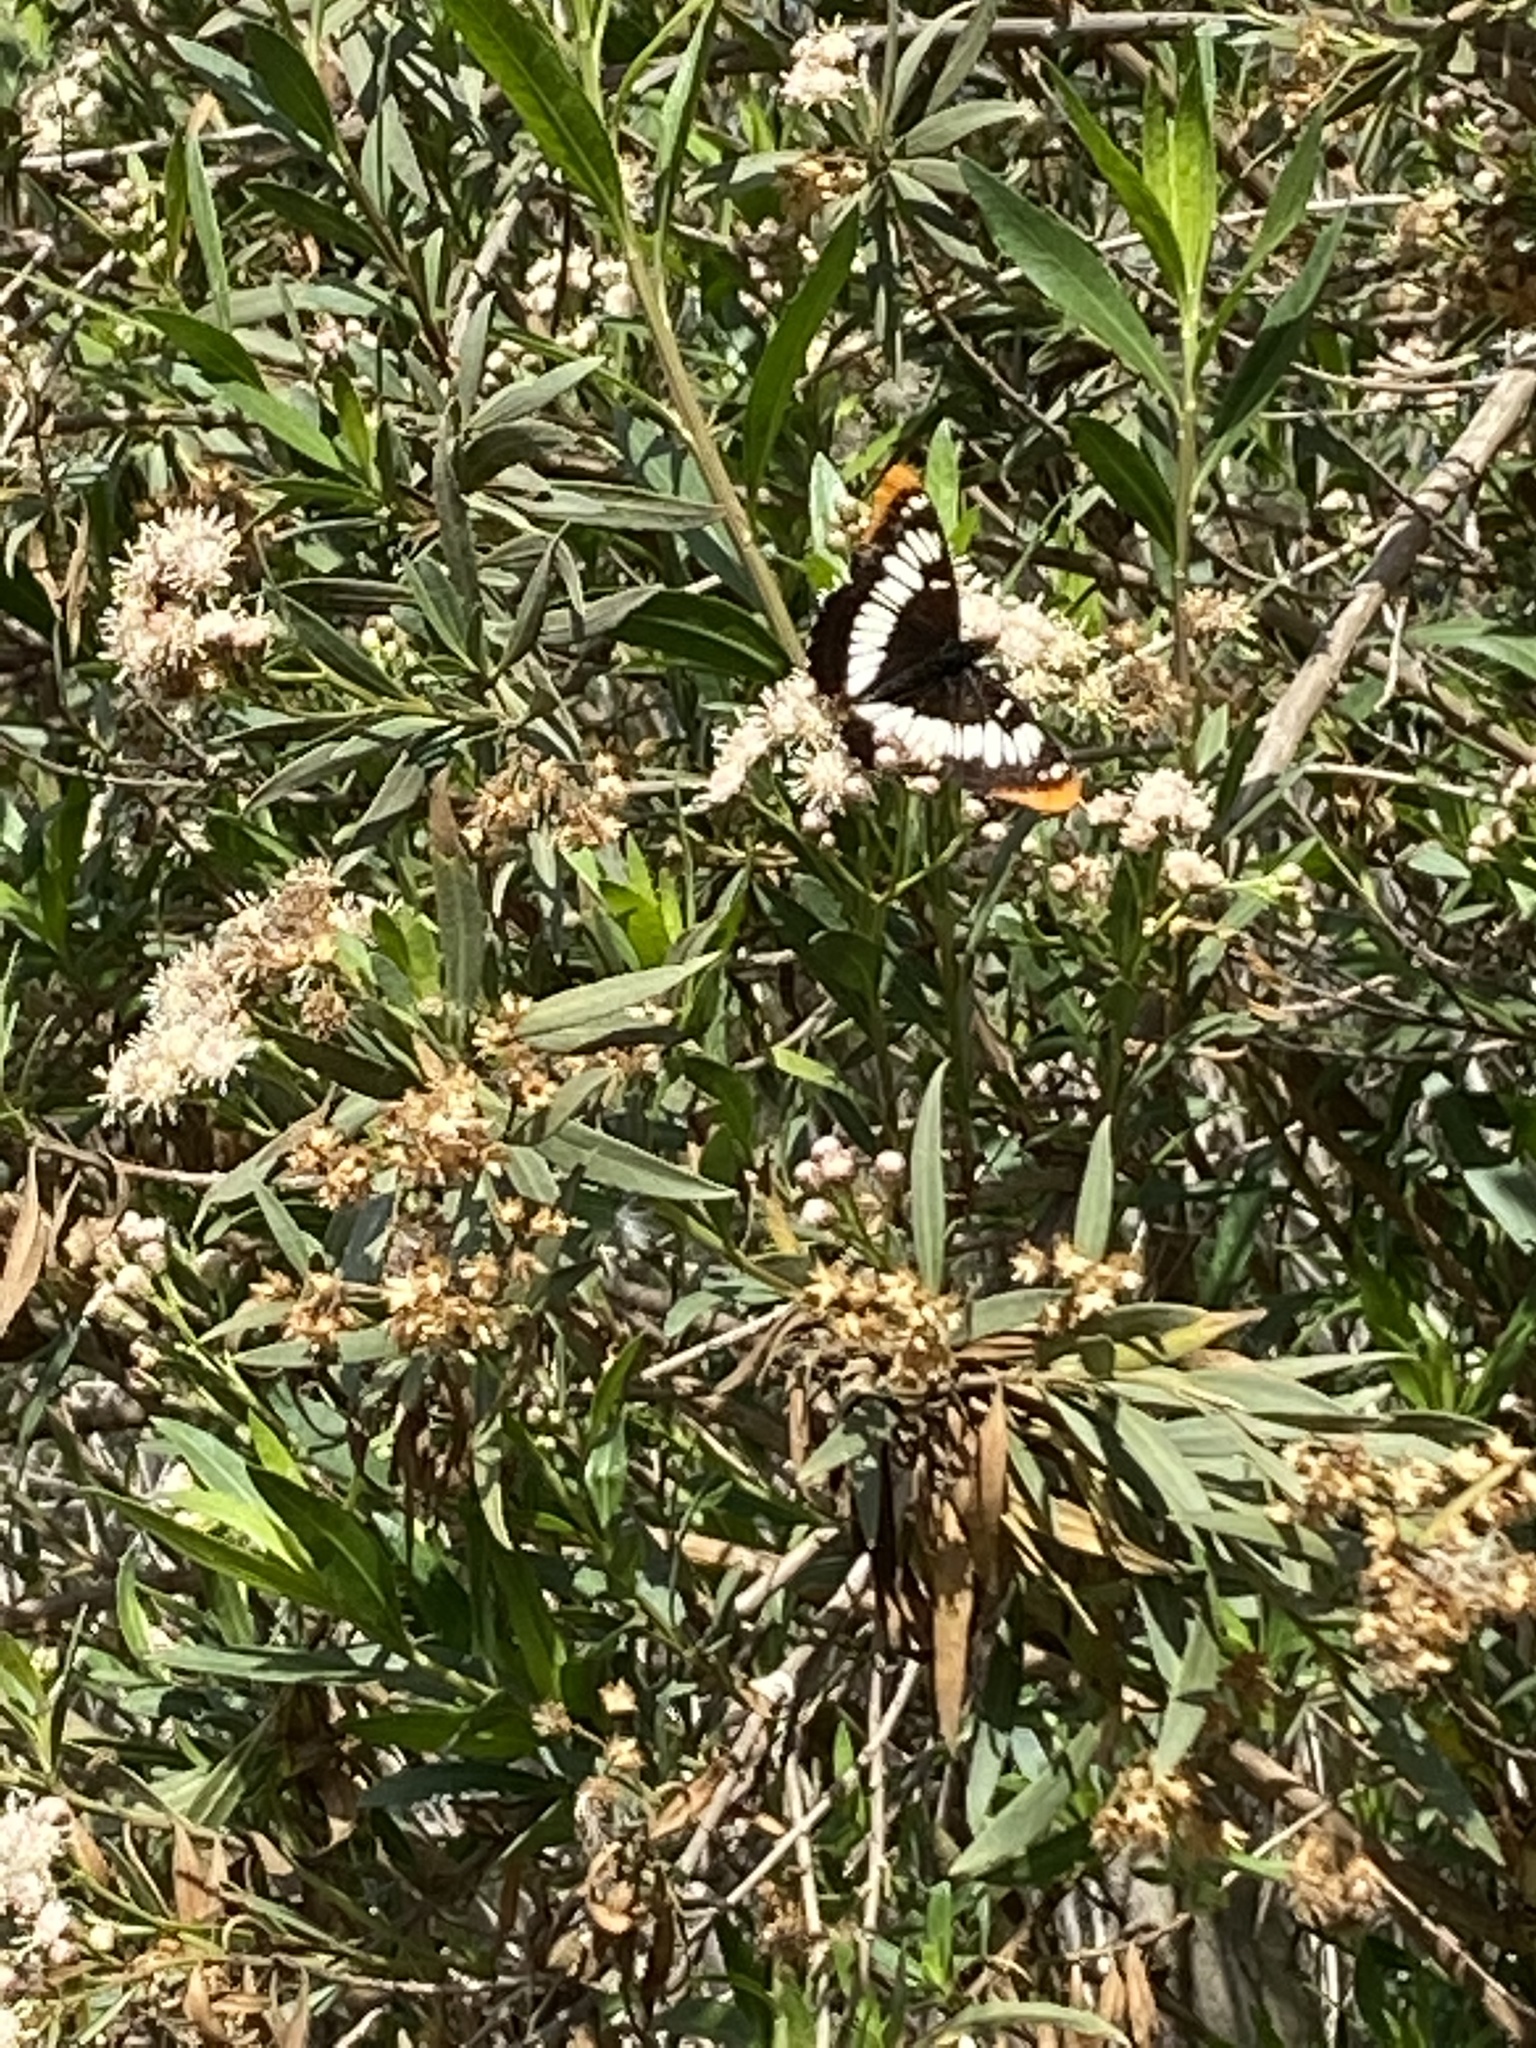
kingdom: Animalia
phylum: Arthropoda
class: Insecta
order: Lepidoptera
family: Nymphalidae
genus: Limenitis
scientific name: Limenitis lorquini
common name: Lorquin's admiral
